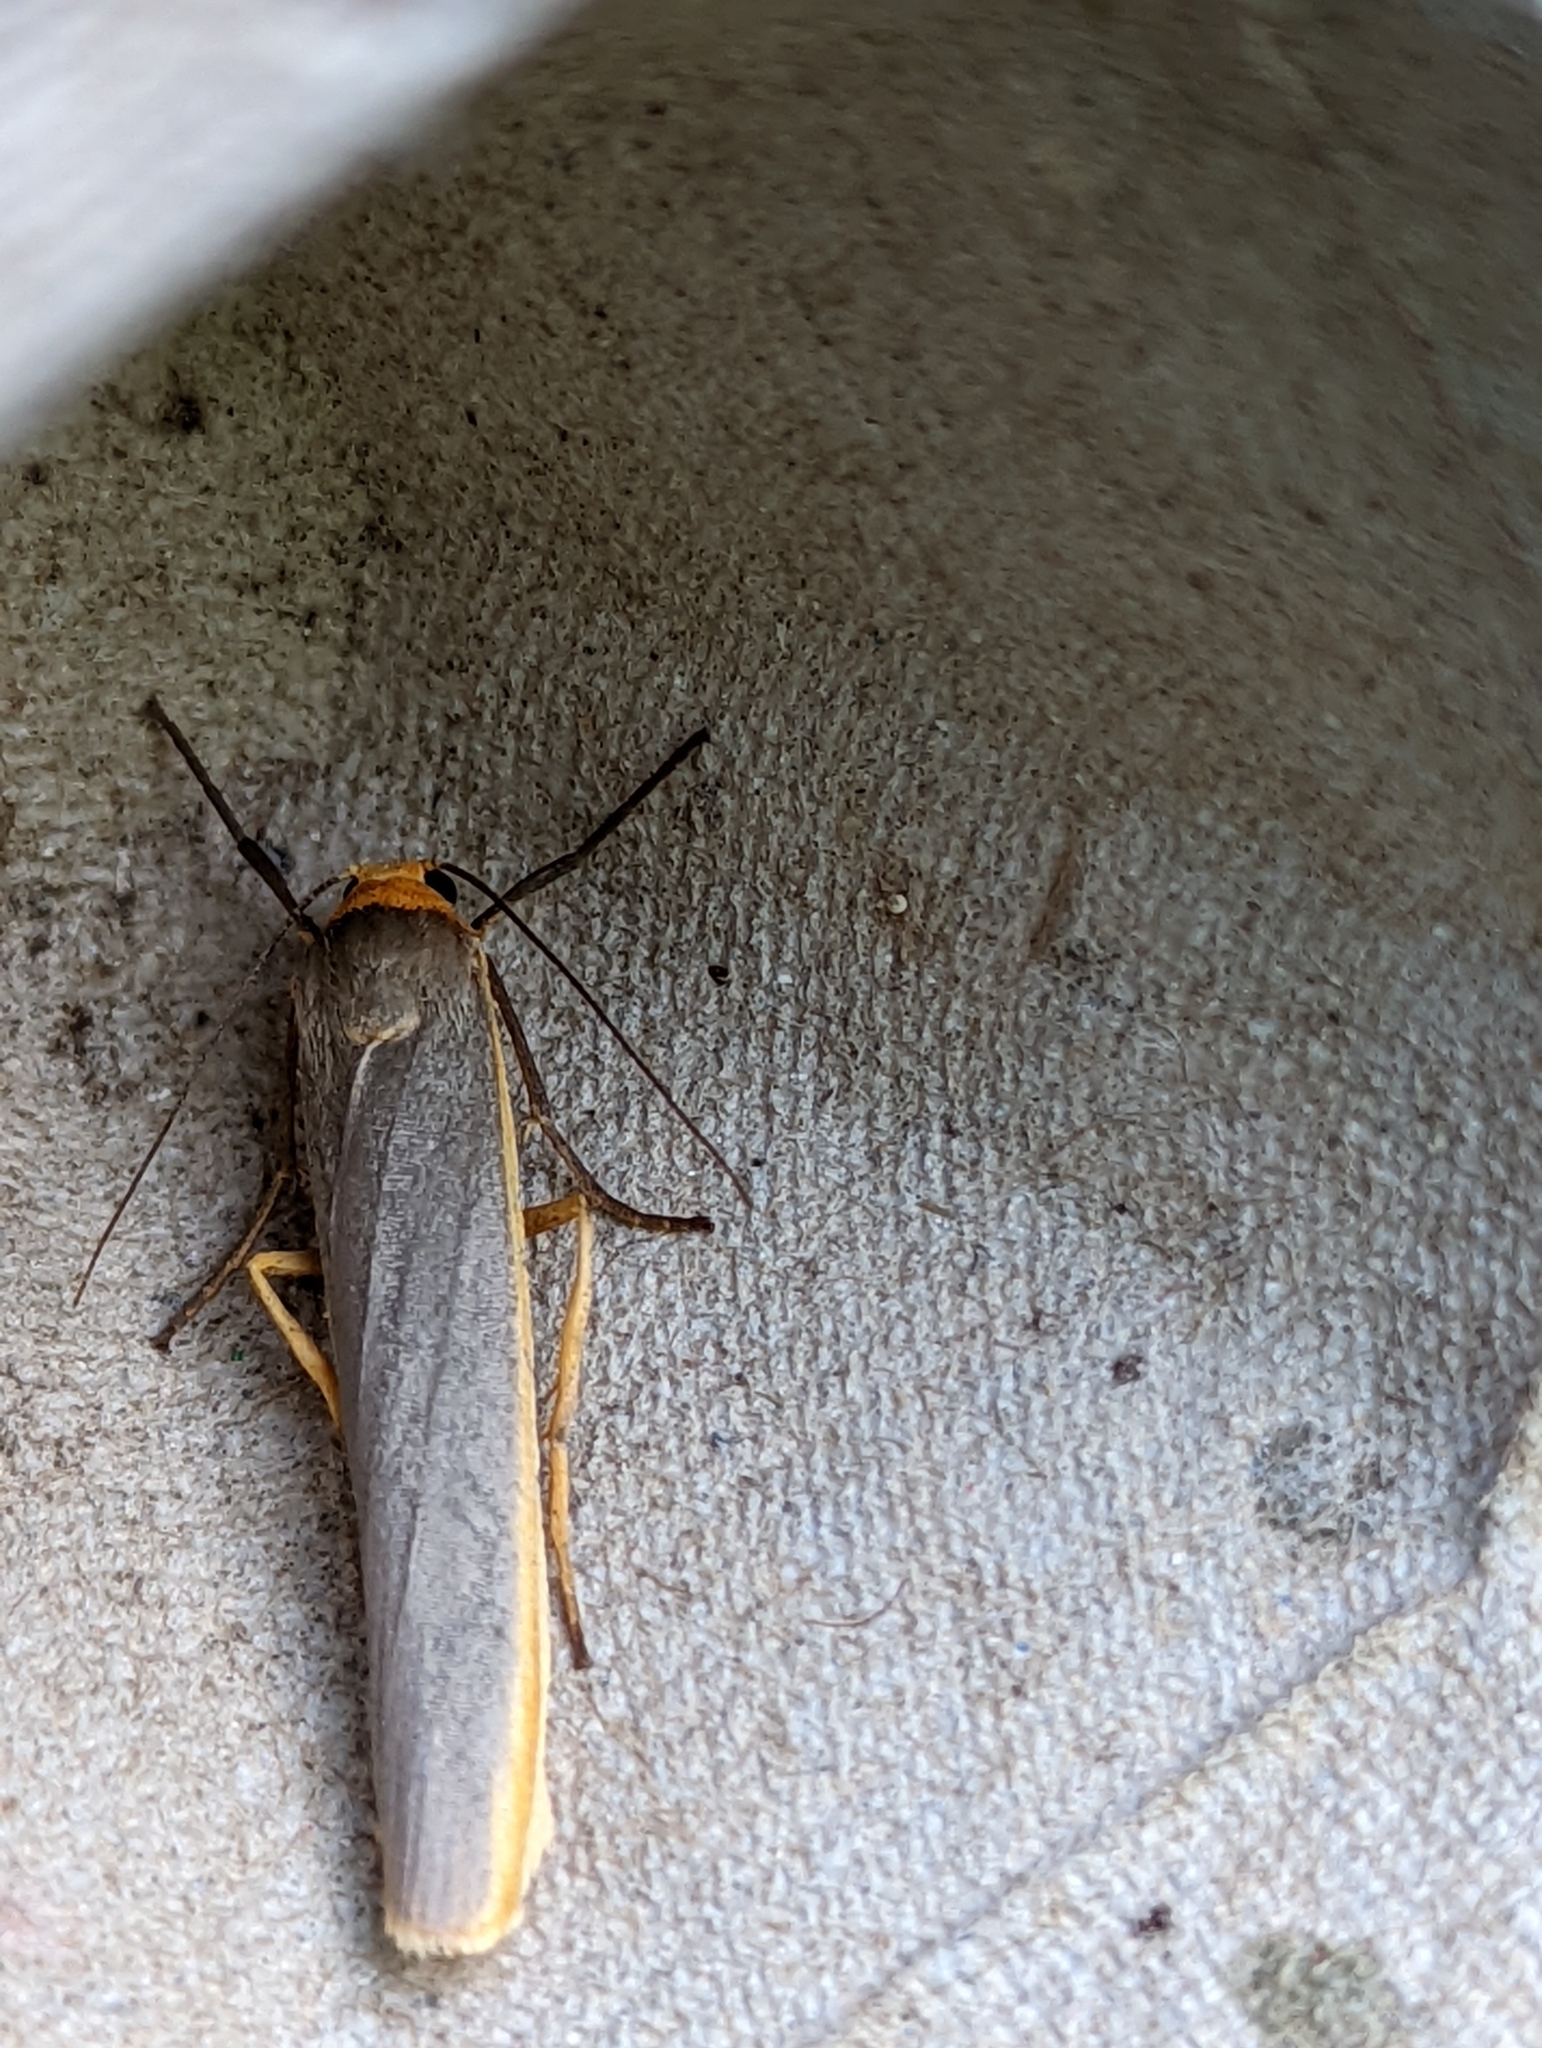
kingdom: Animalia
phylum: Arthropoda
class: Insecta
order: Lepidoptera
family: Erebidae
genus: Manulea
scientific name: Manulea complana
